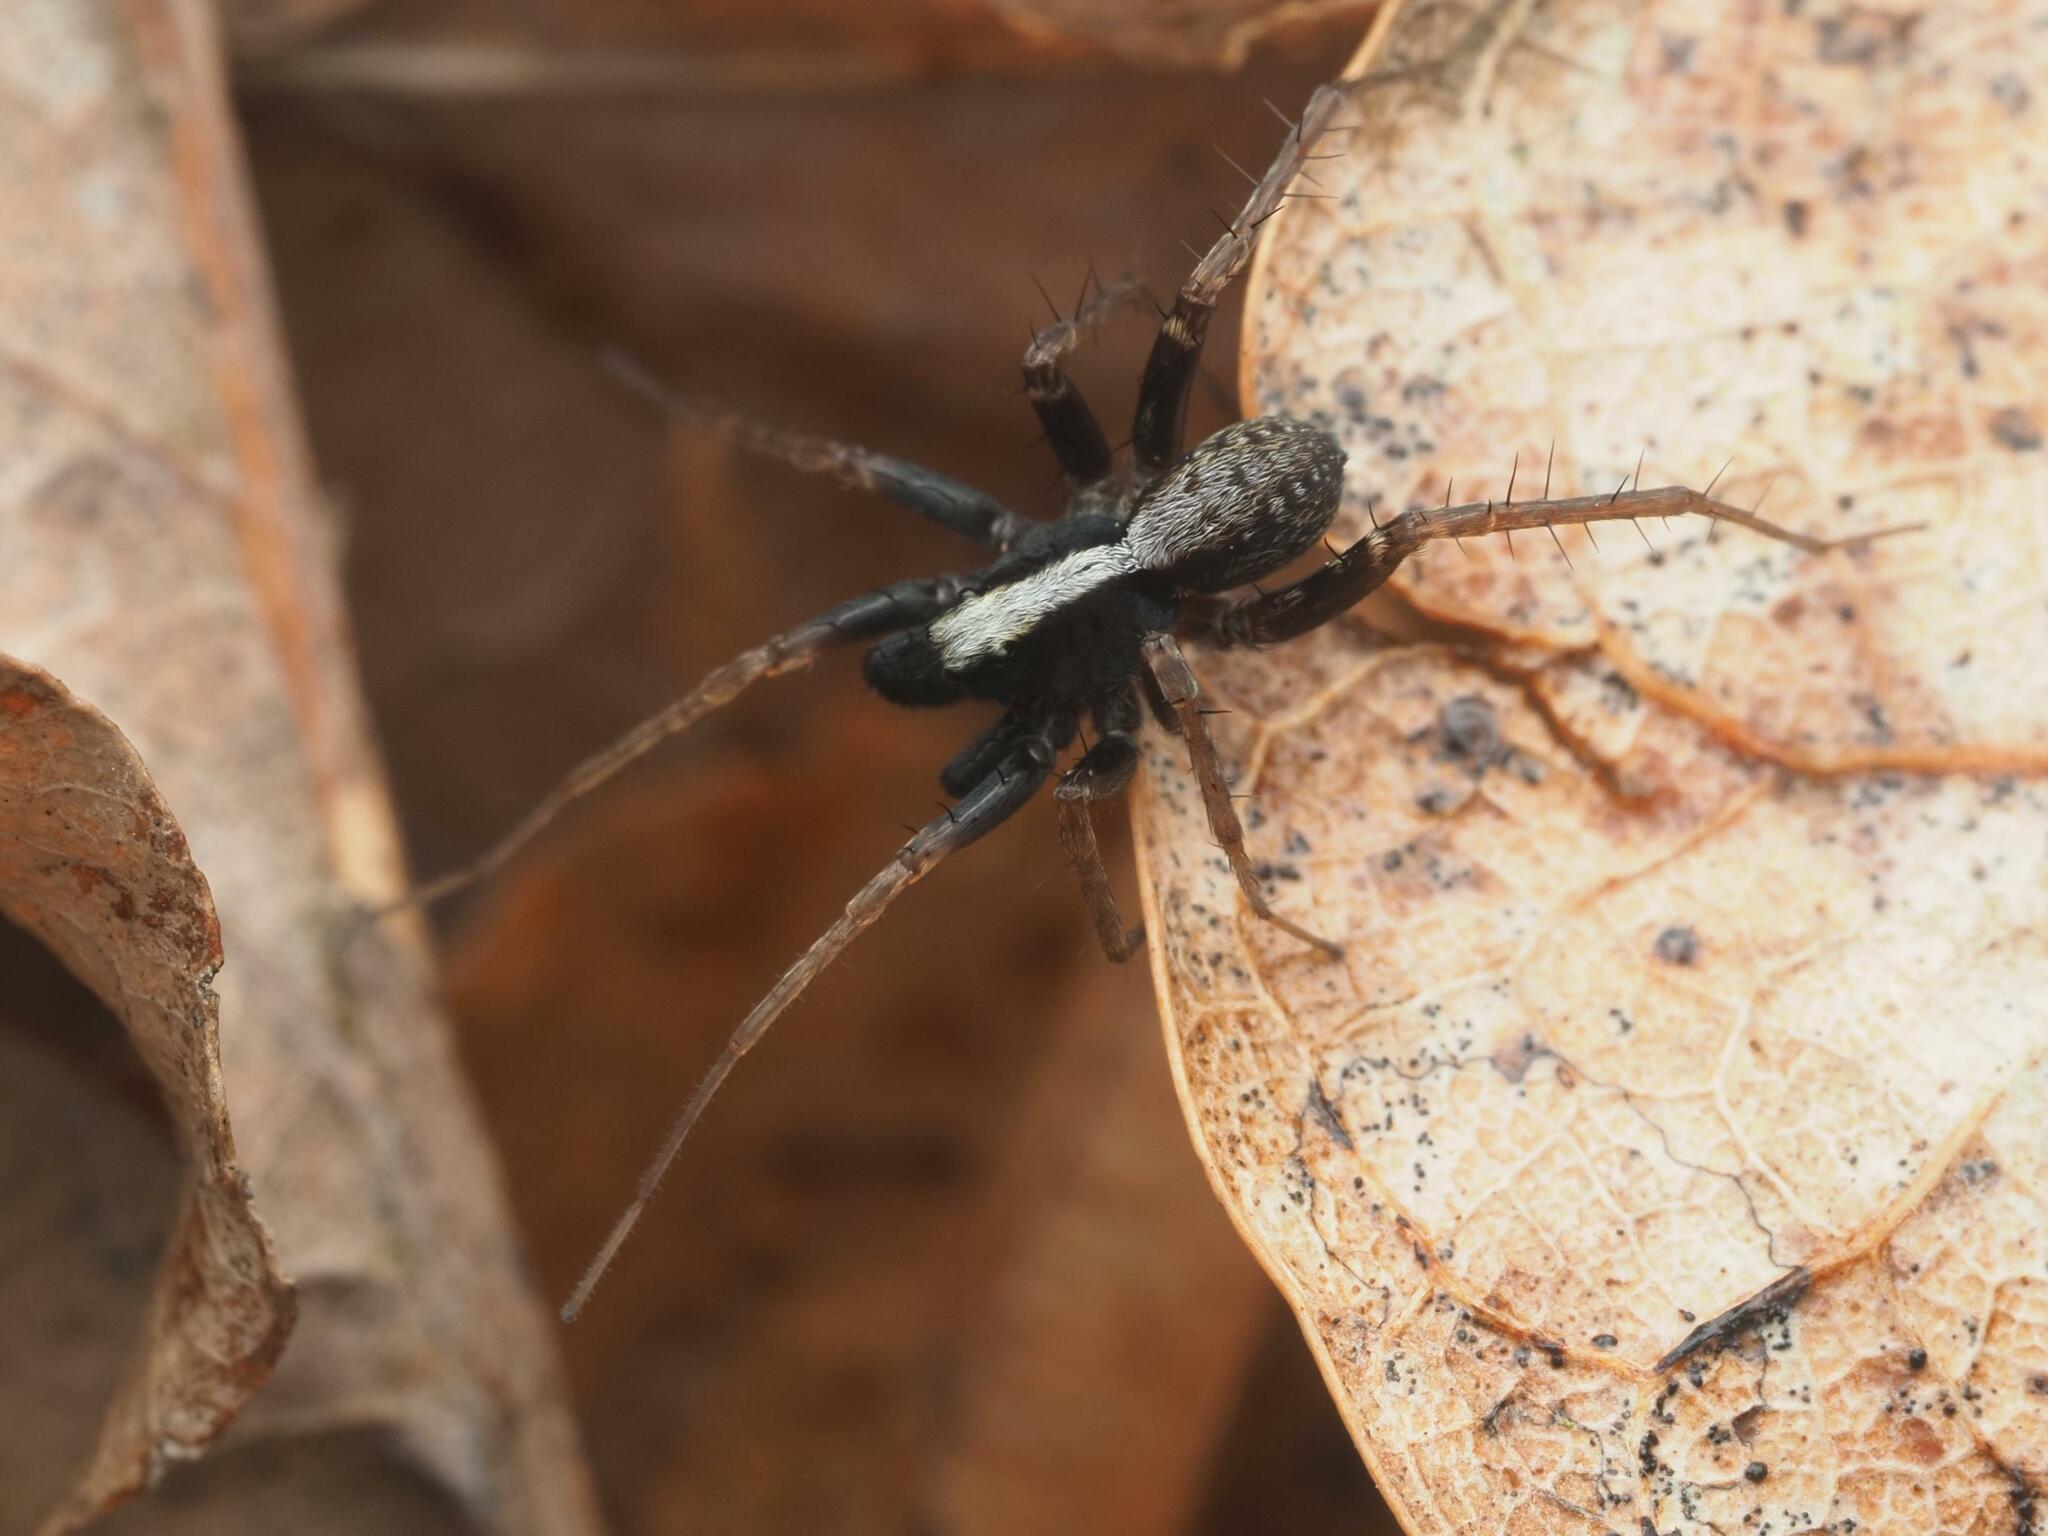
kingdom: Animalia
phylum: Arthropoda
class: Arachnida
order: Araneae
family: Lycosidae
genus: Pardosa
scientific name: Pardosa
